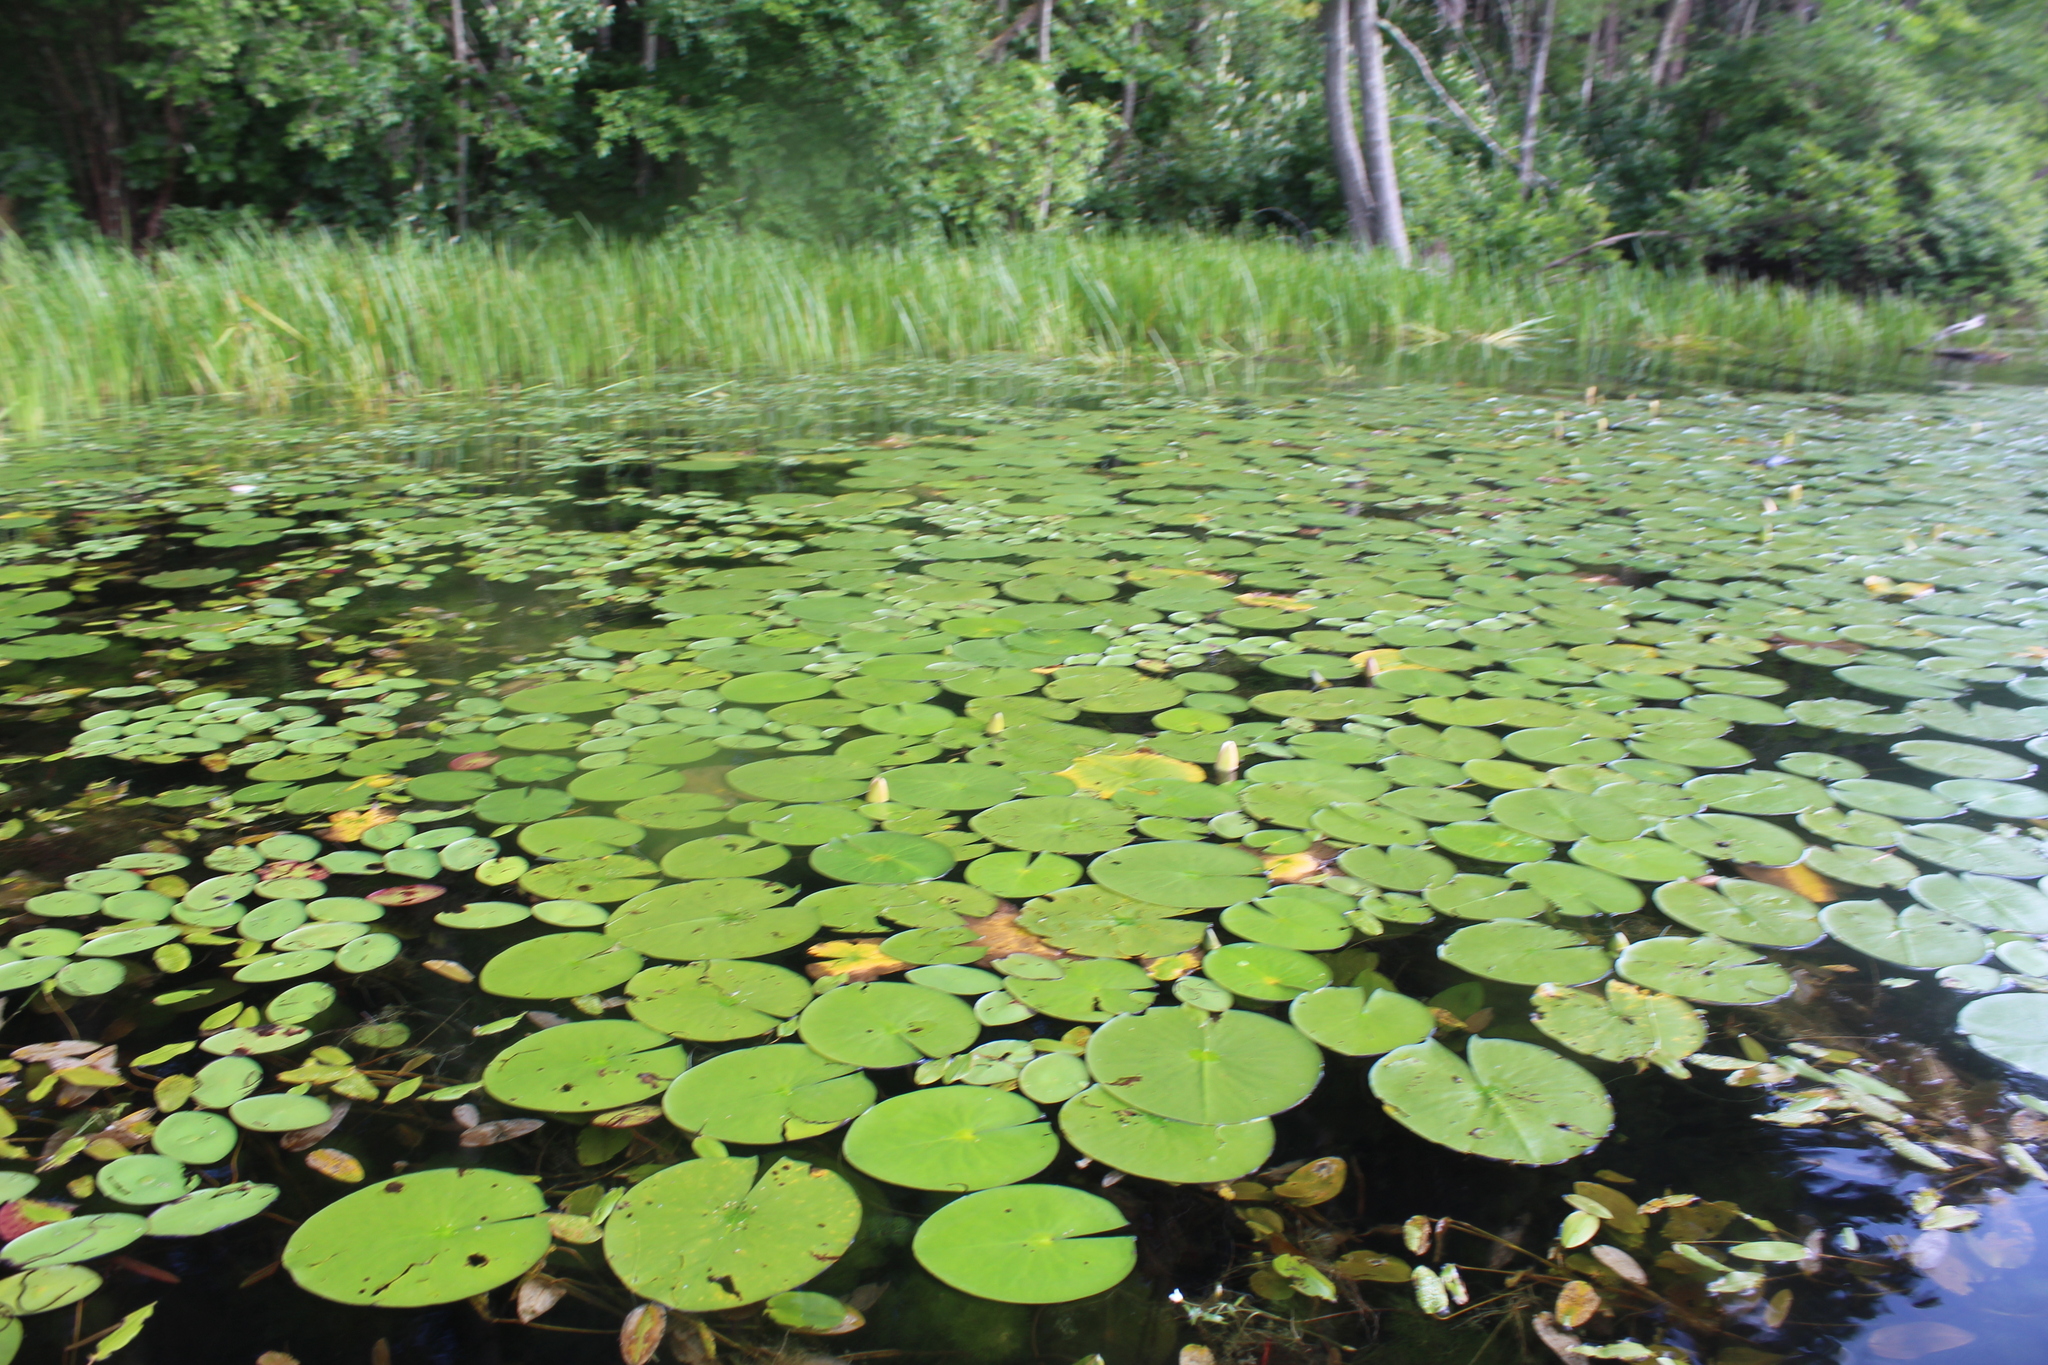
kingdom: Plantae
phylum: Tracheophyta
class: Magnoliopsida
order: Nymphaeales
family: Nymphaeaceae
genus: Nymphaea
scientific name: Nymphaea odorata
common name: Fragrant water-lily
